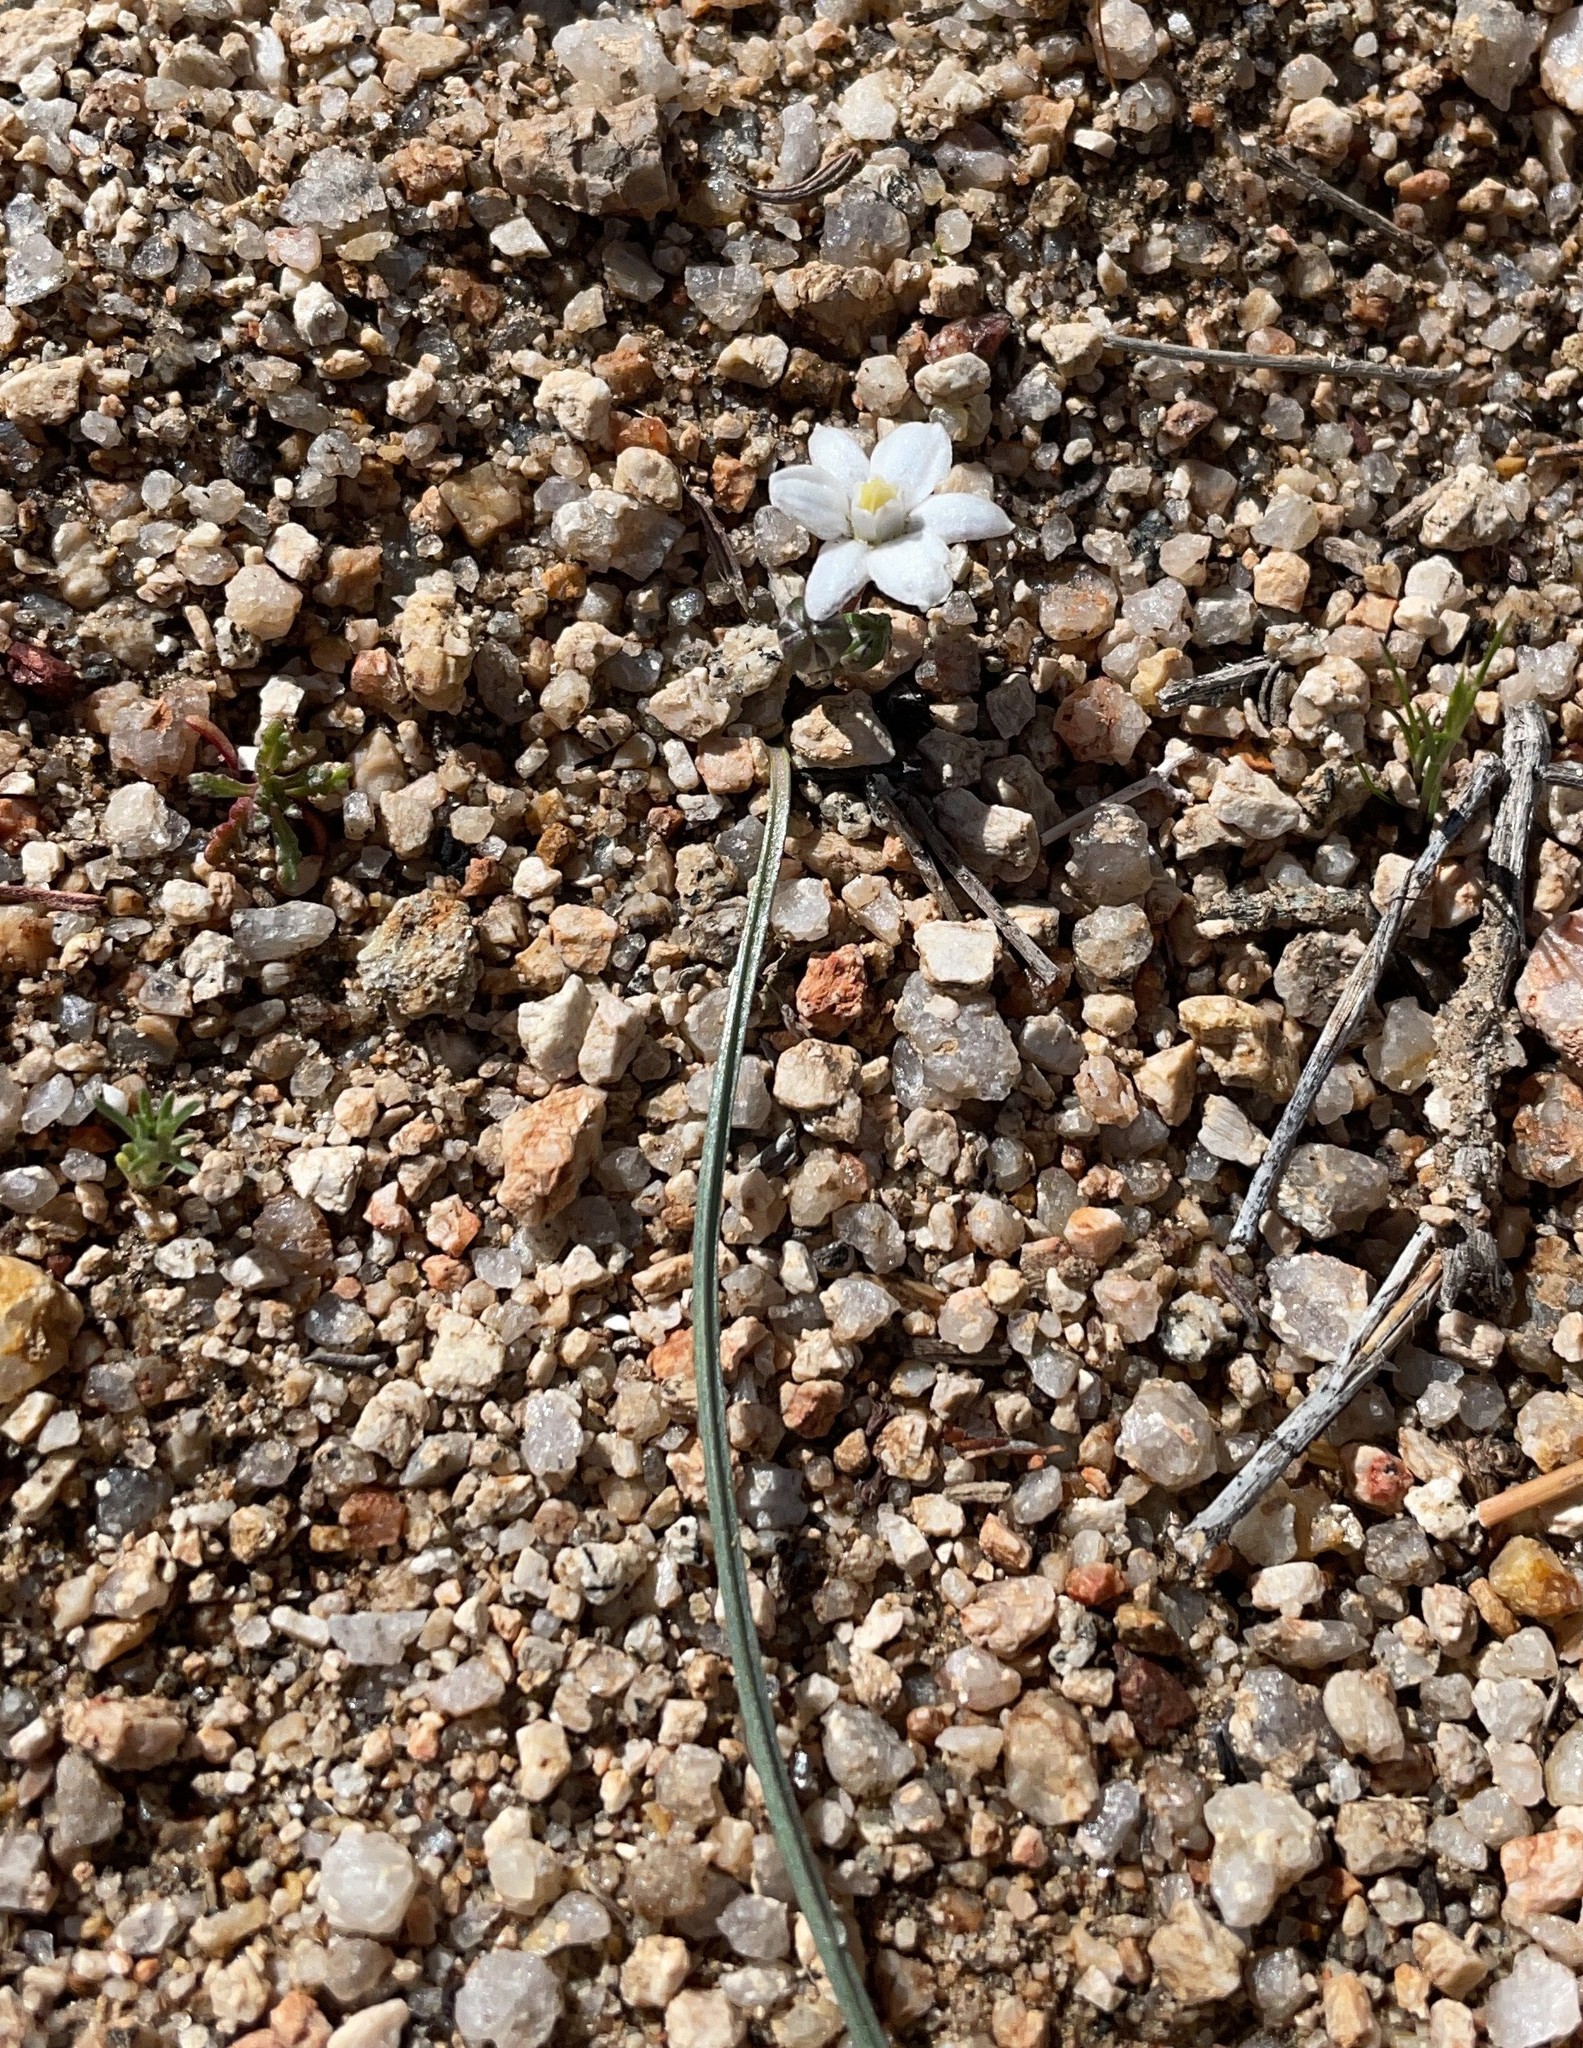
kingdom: Plantae
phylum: Tracheophyta
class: Liliopsida
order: Asparagales
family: Asparagaceae
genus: Muilla
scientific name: Muilla coronata
